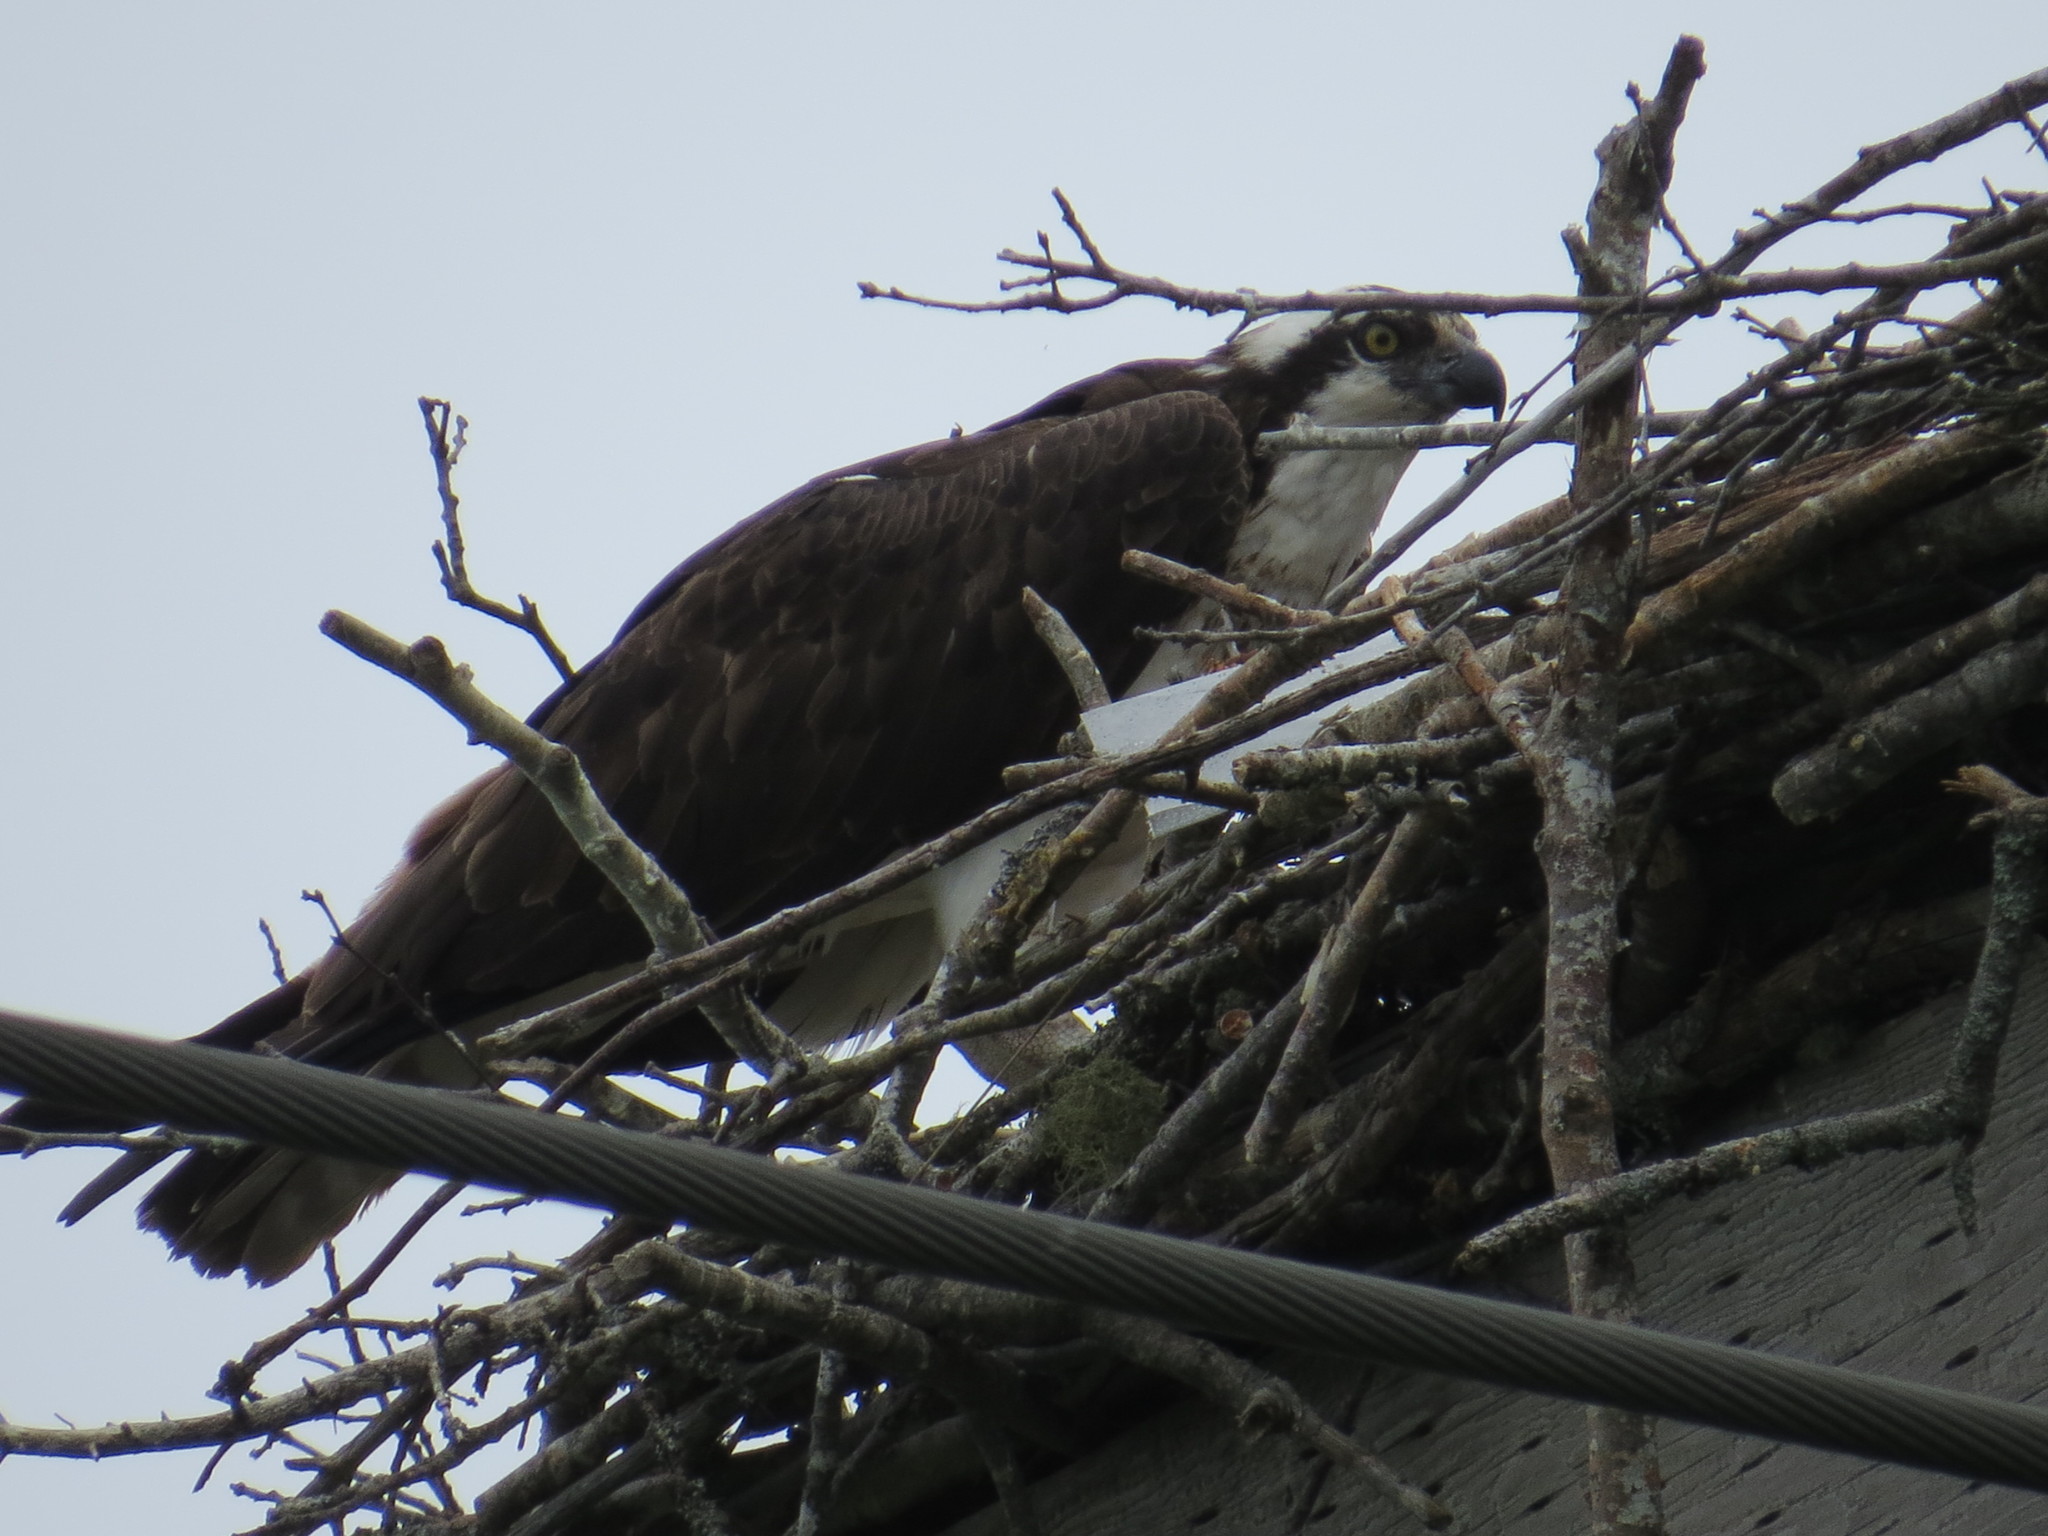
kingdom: Animalia
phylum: Chordata
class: Aves
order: Accipitriformes
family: Pandionidae
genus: Pandion
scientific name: Pandion haliaetus
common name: Osprey
